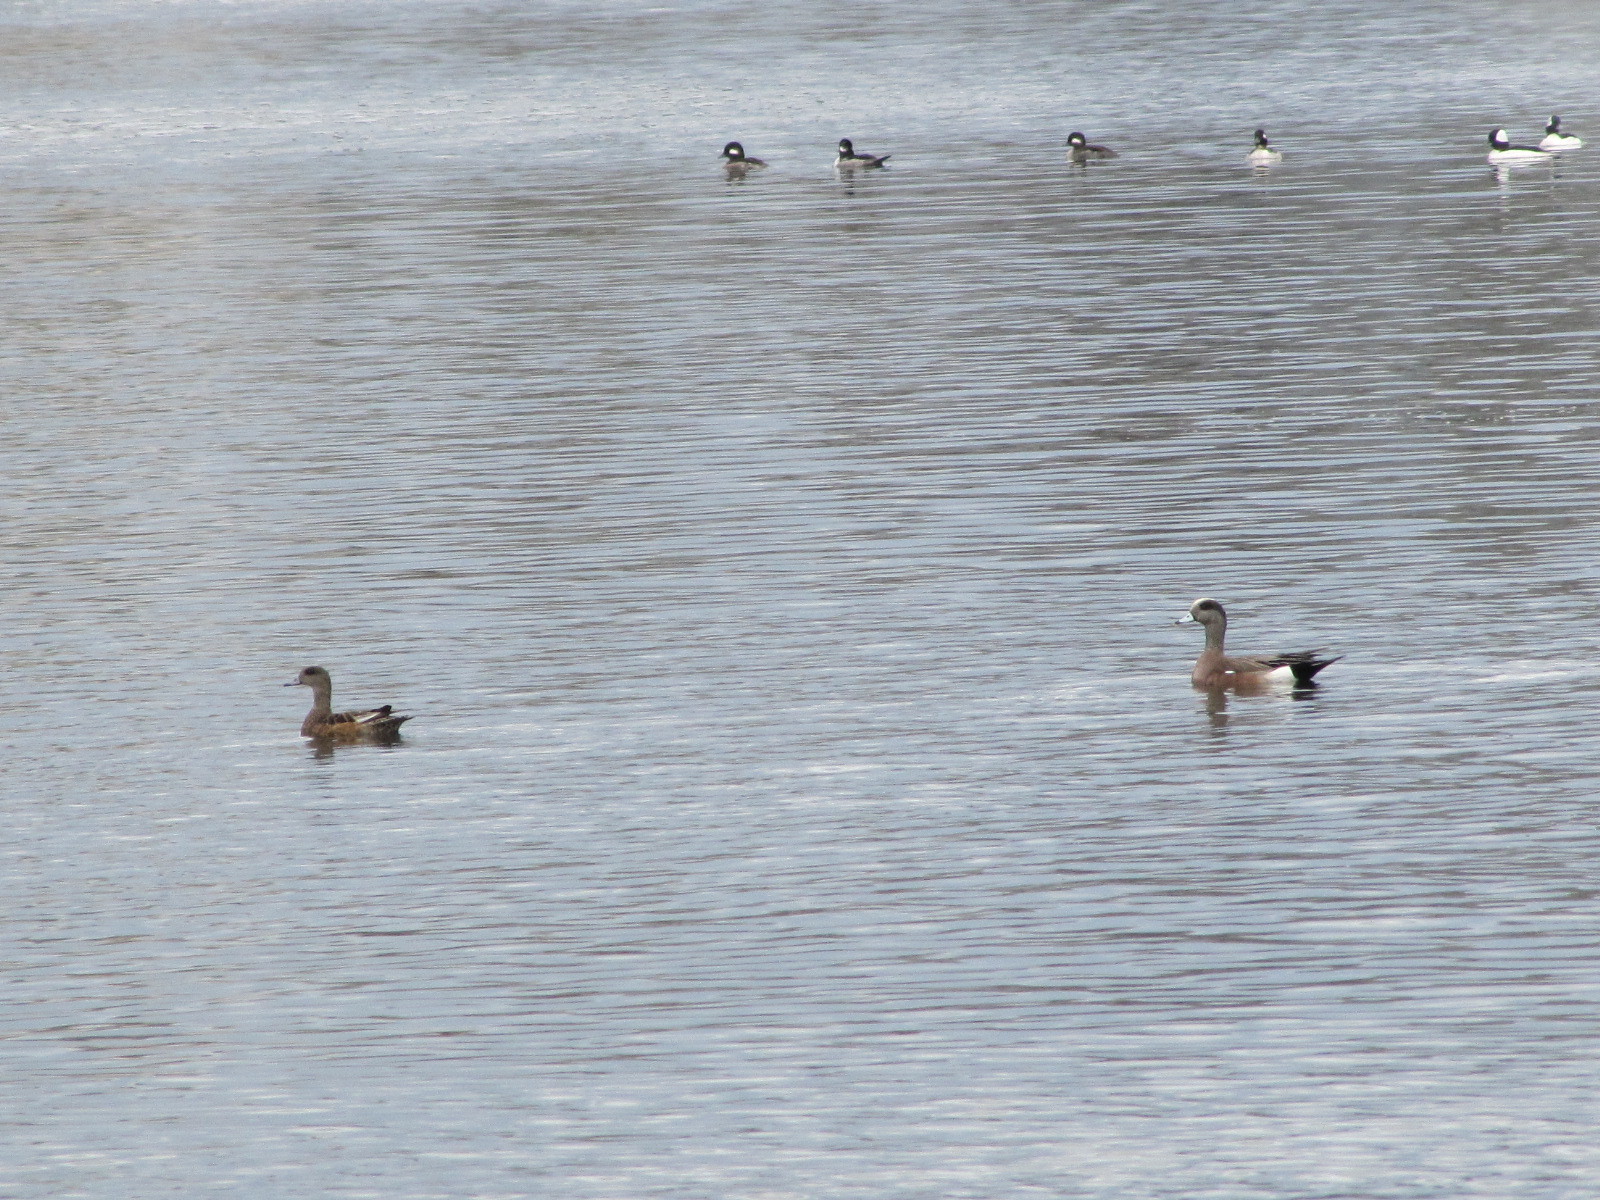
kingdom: Animalia
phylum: Chordata
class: Aves
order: Anseriformes
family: Anatidae
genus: Mareca
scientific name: Mareca americana
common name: American wigeon
